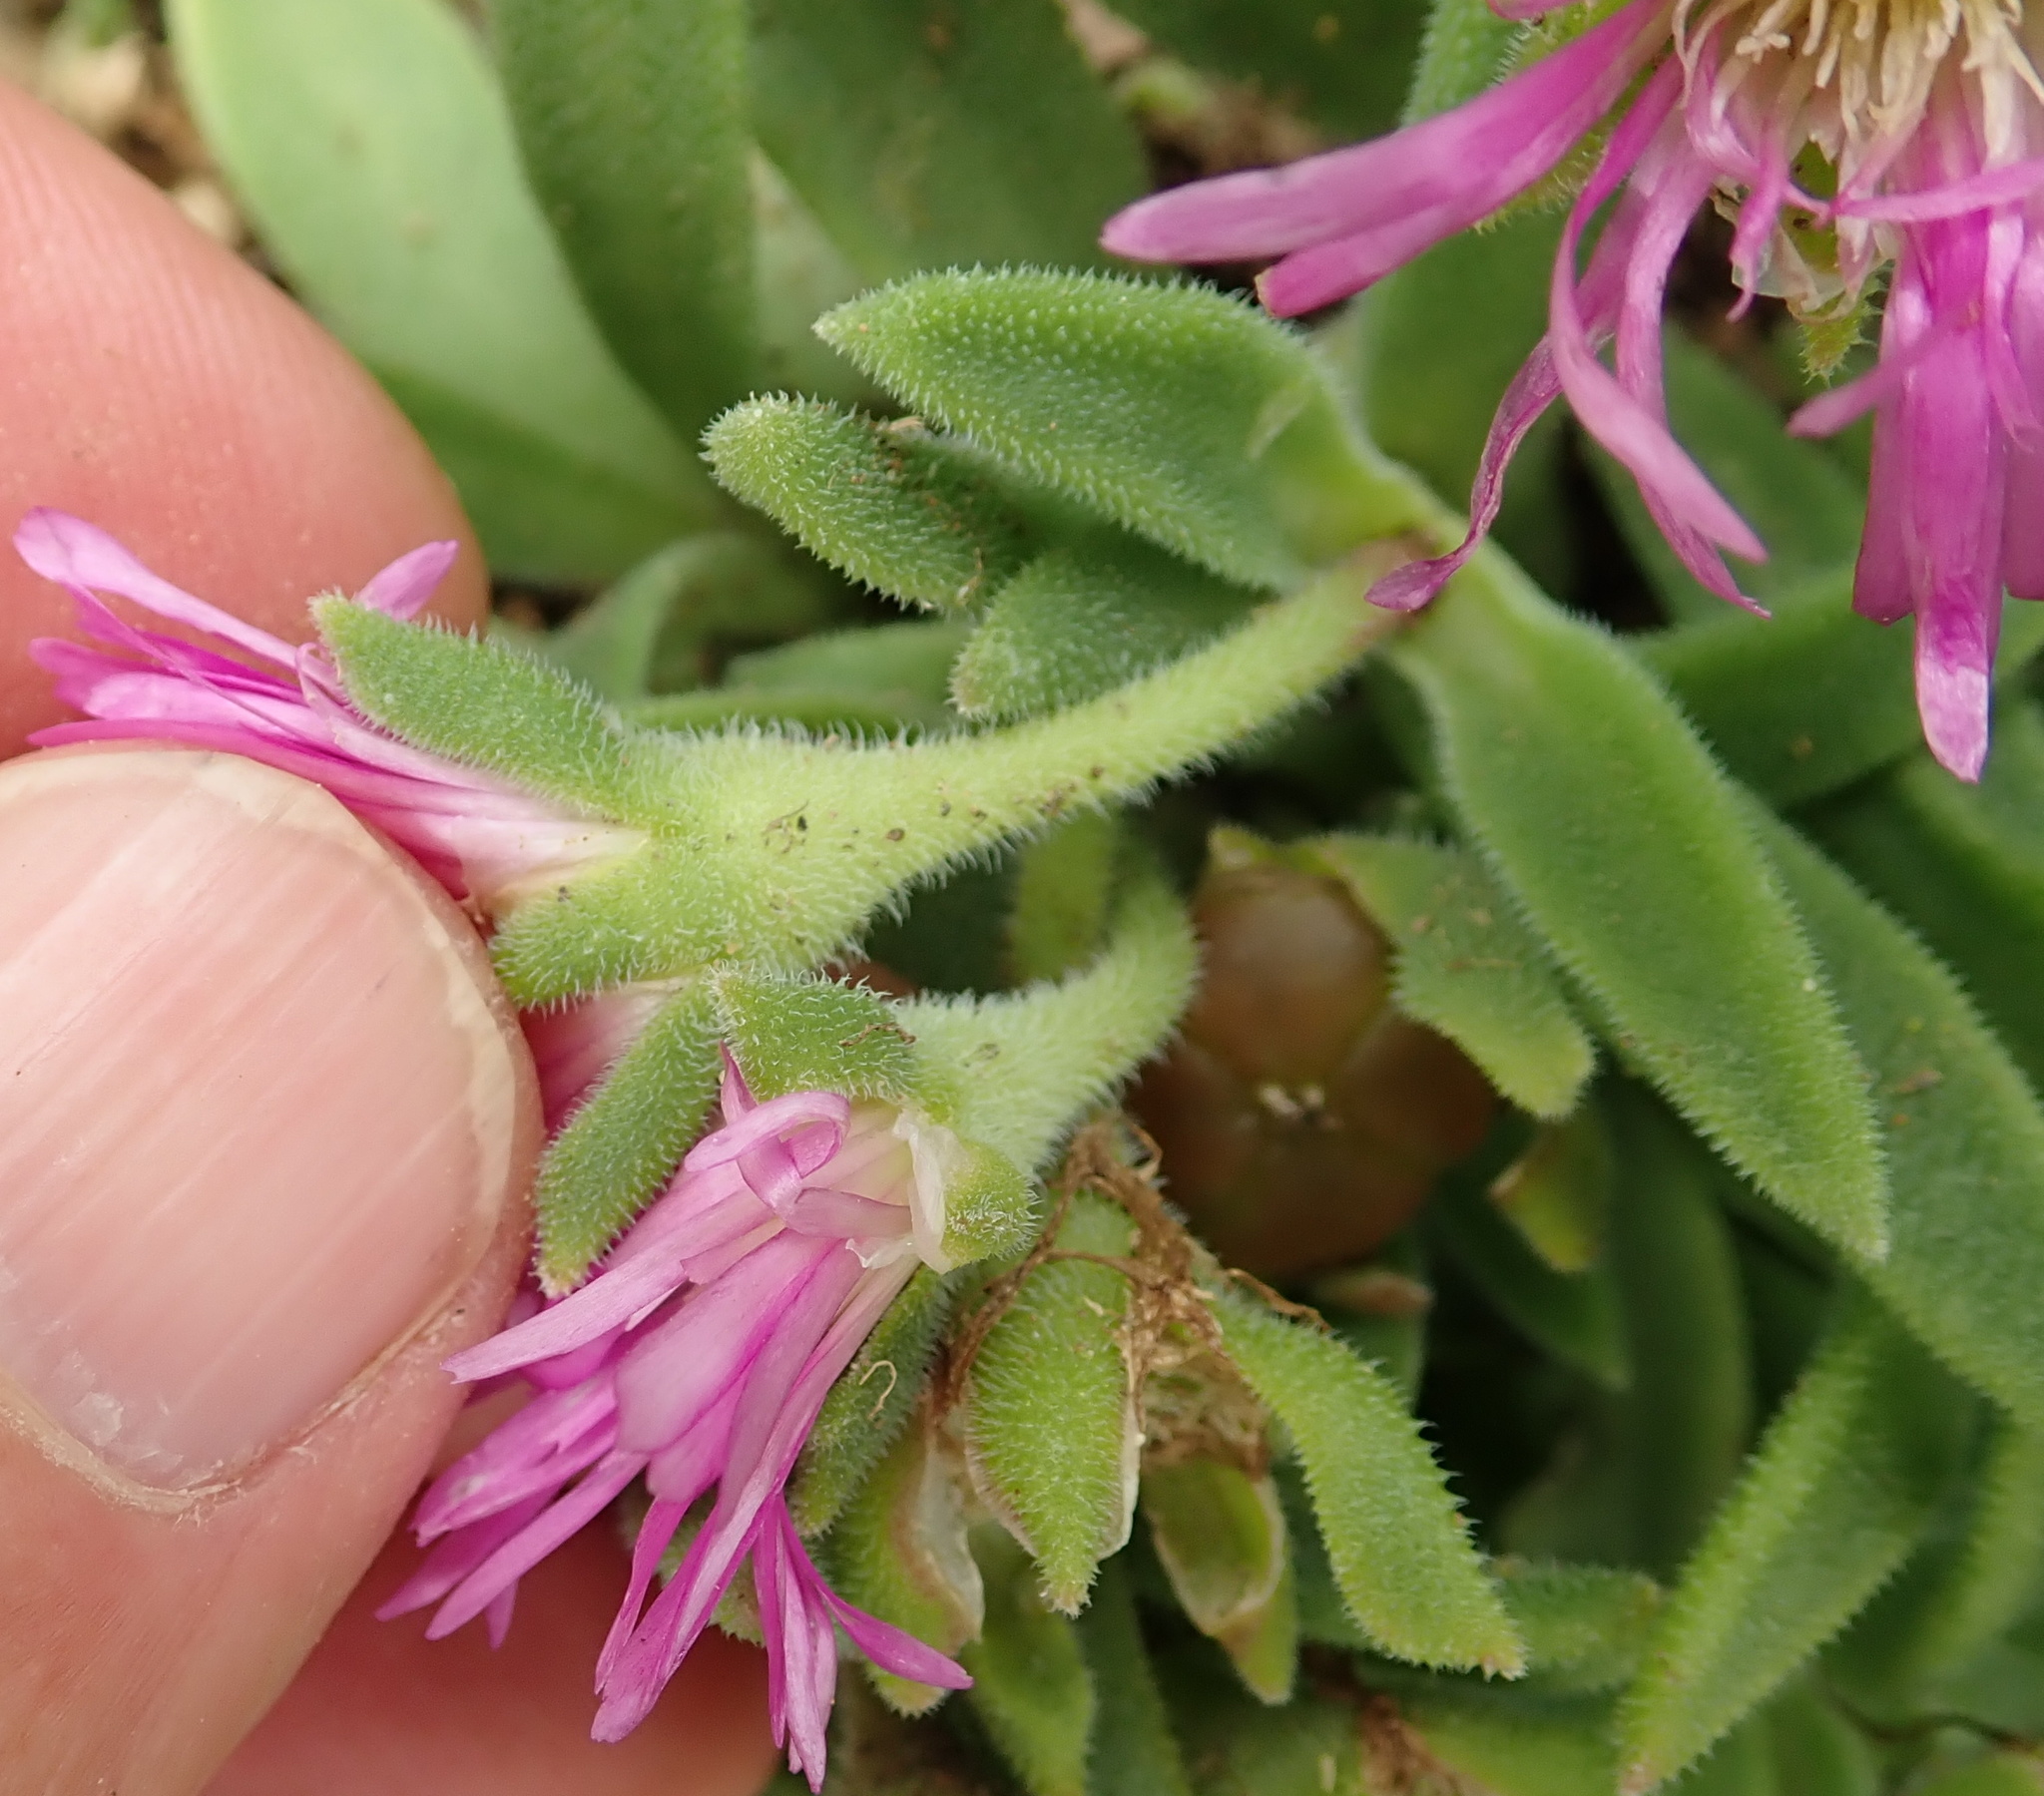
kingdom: Plantae
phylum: Tracheophyta
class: Magnoliopsida
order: Caryophyllales
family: Aizoaceae
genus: Delosperma
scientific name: Delosperma sutherlandii
